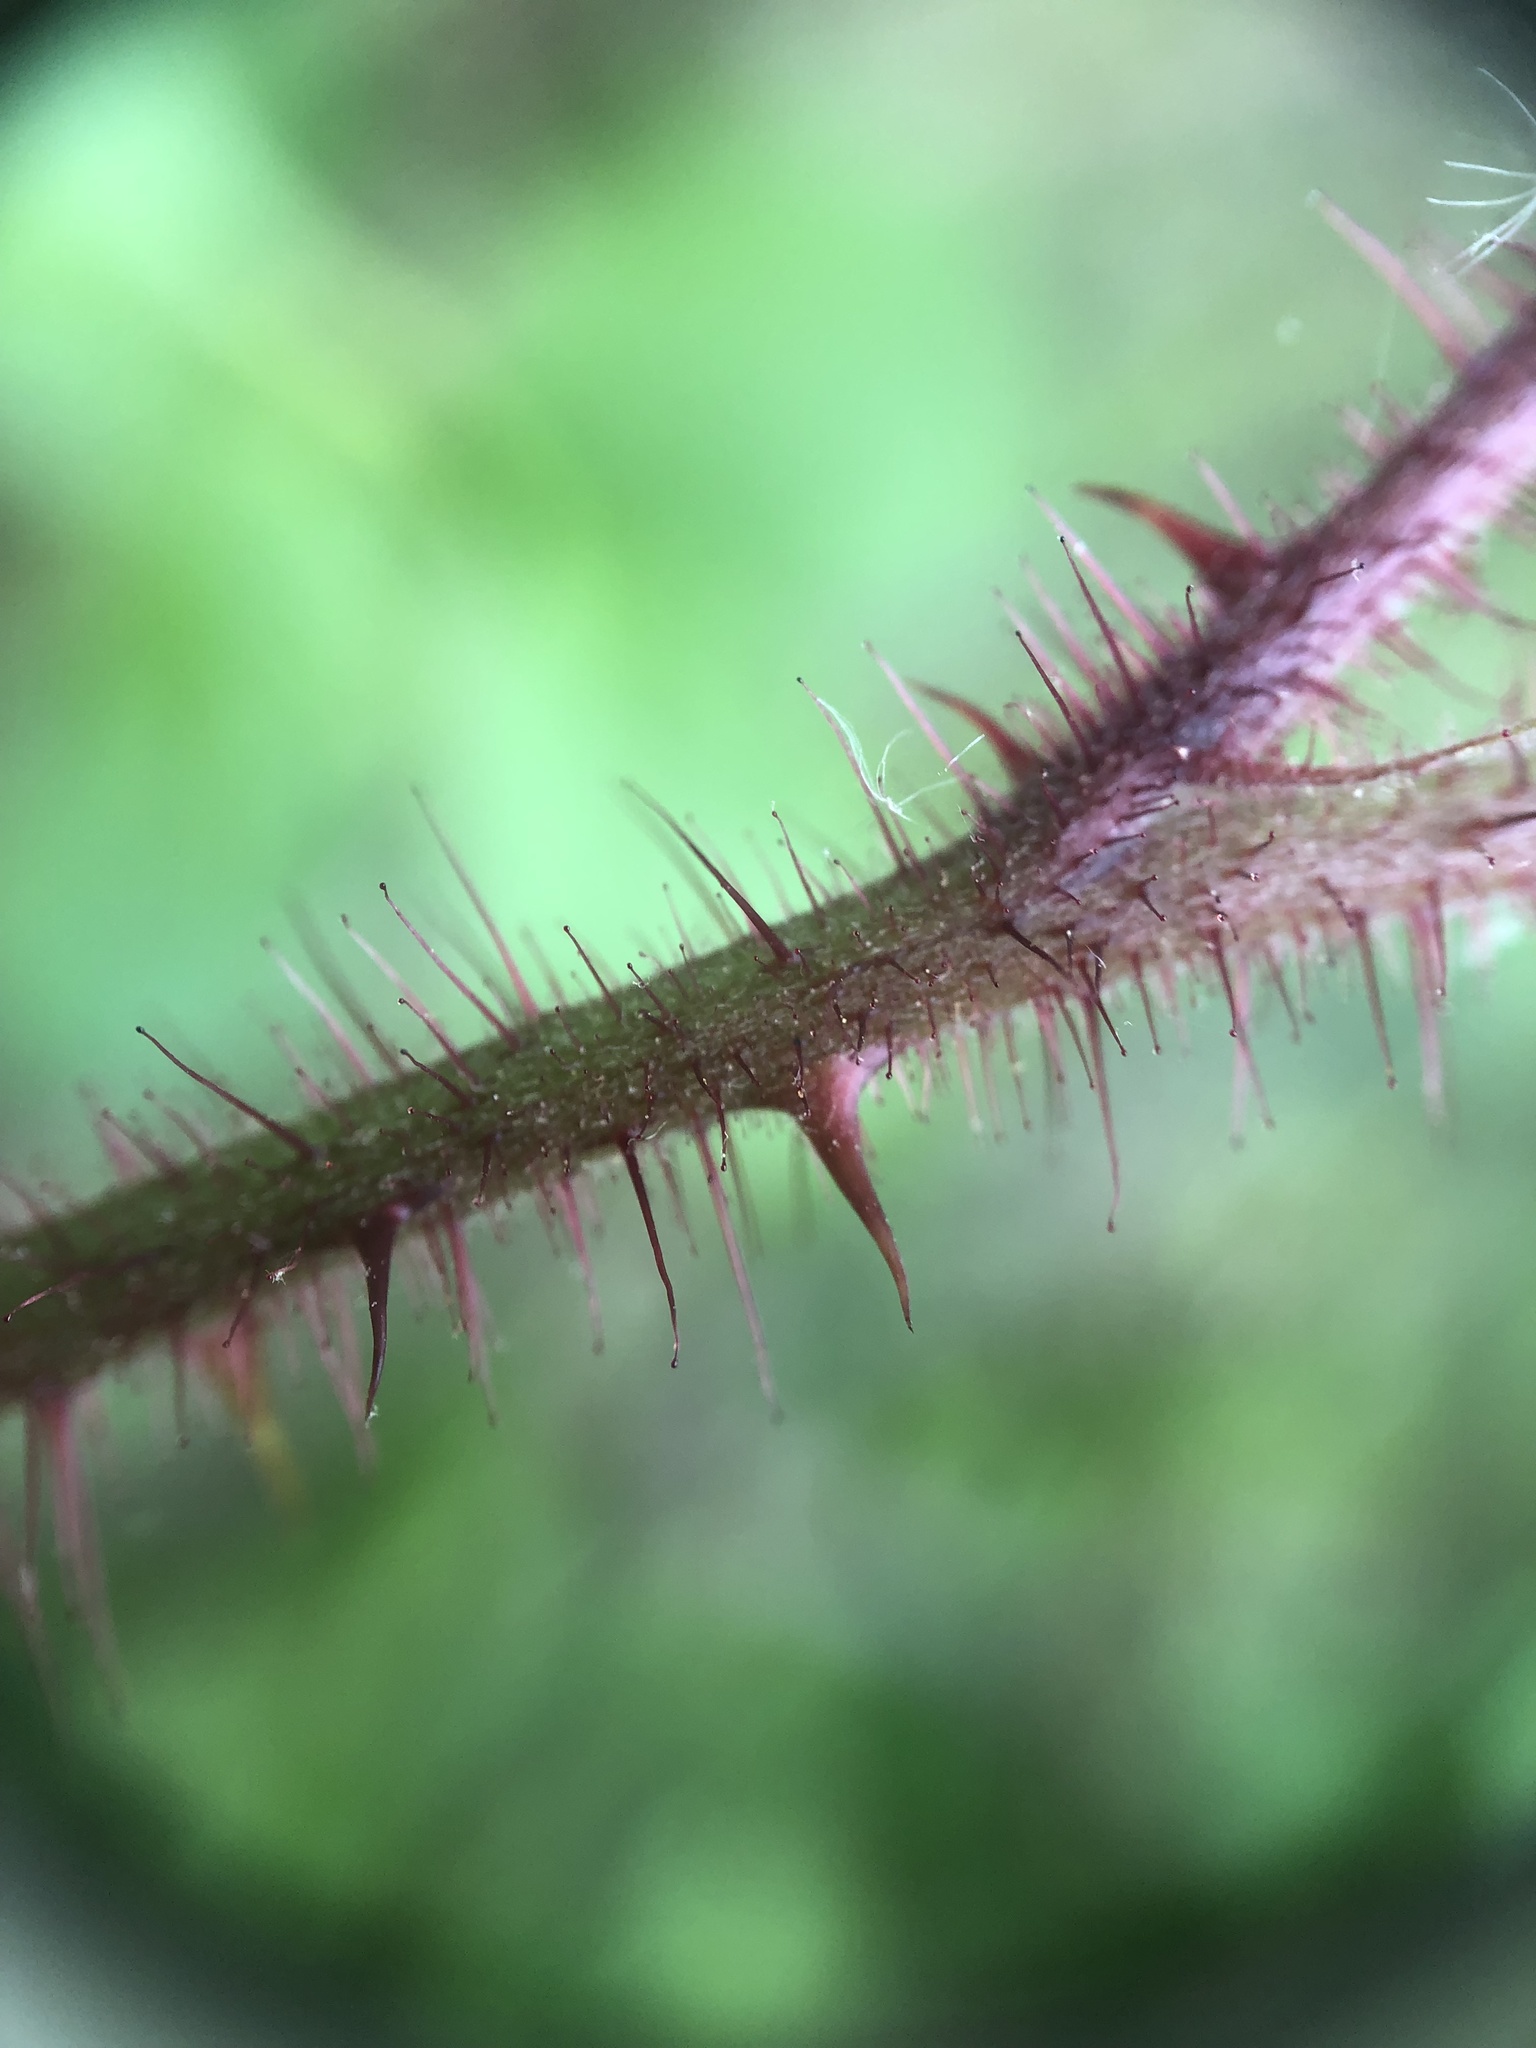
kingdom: Plantae
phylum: Tracheophyta
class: Magnoliopsida
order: Rosales
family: Rosaceae
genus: Rubus
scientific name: Rubus phoenicolasius
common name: Japanese wineberry
